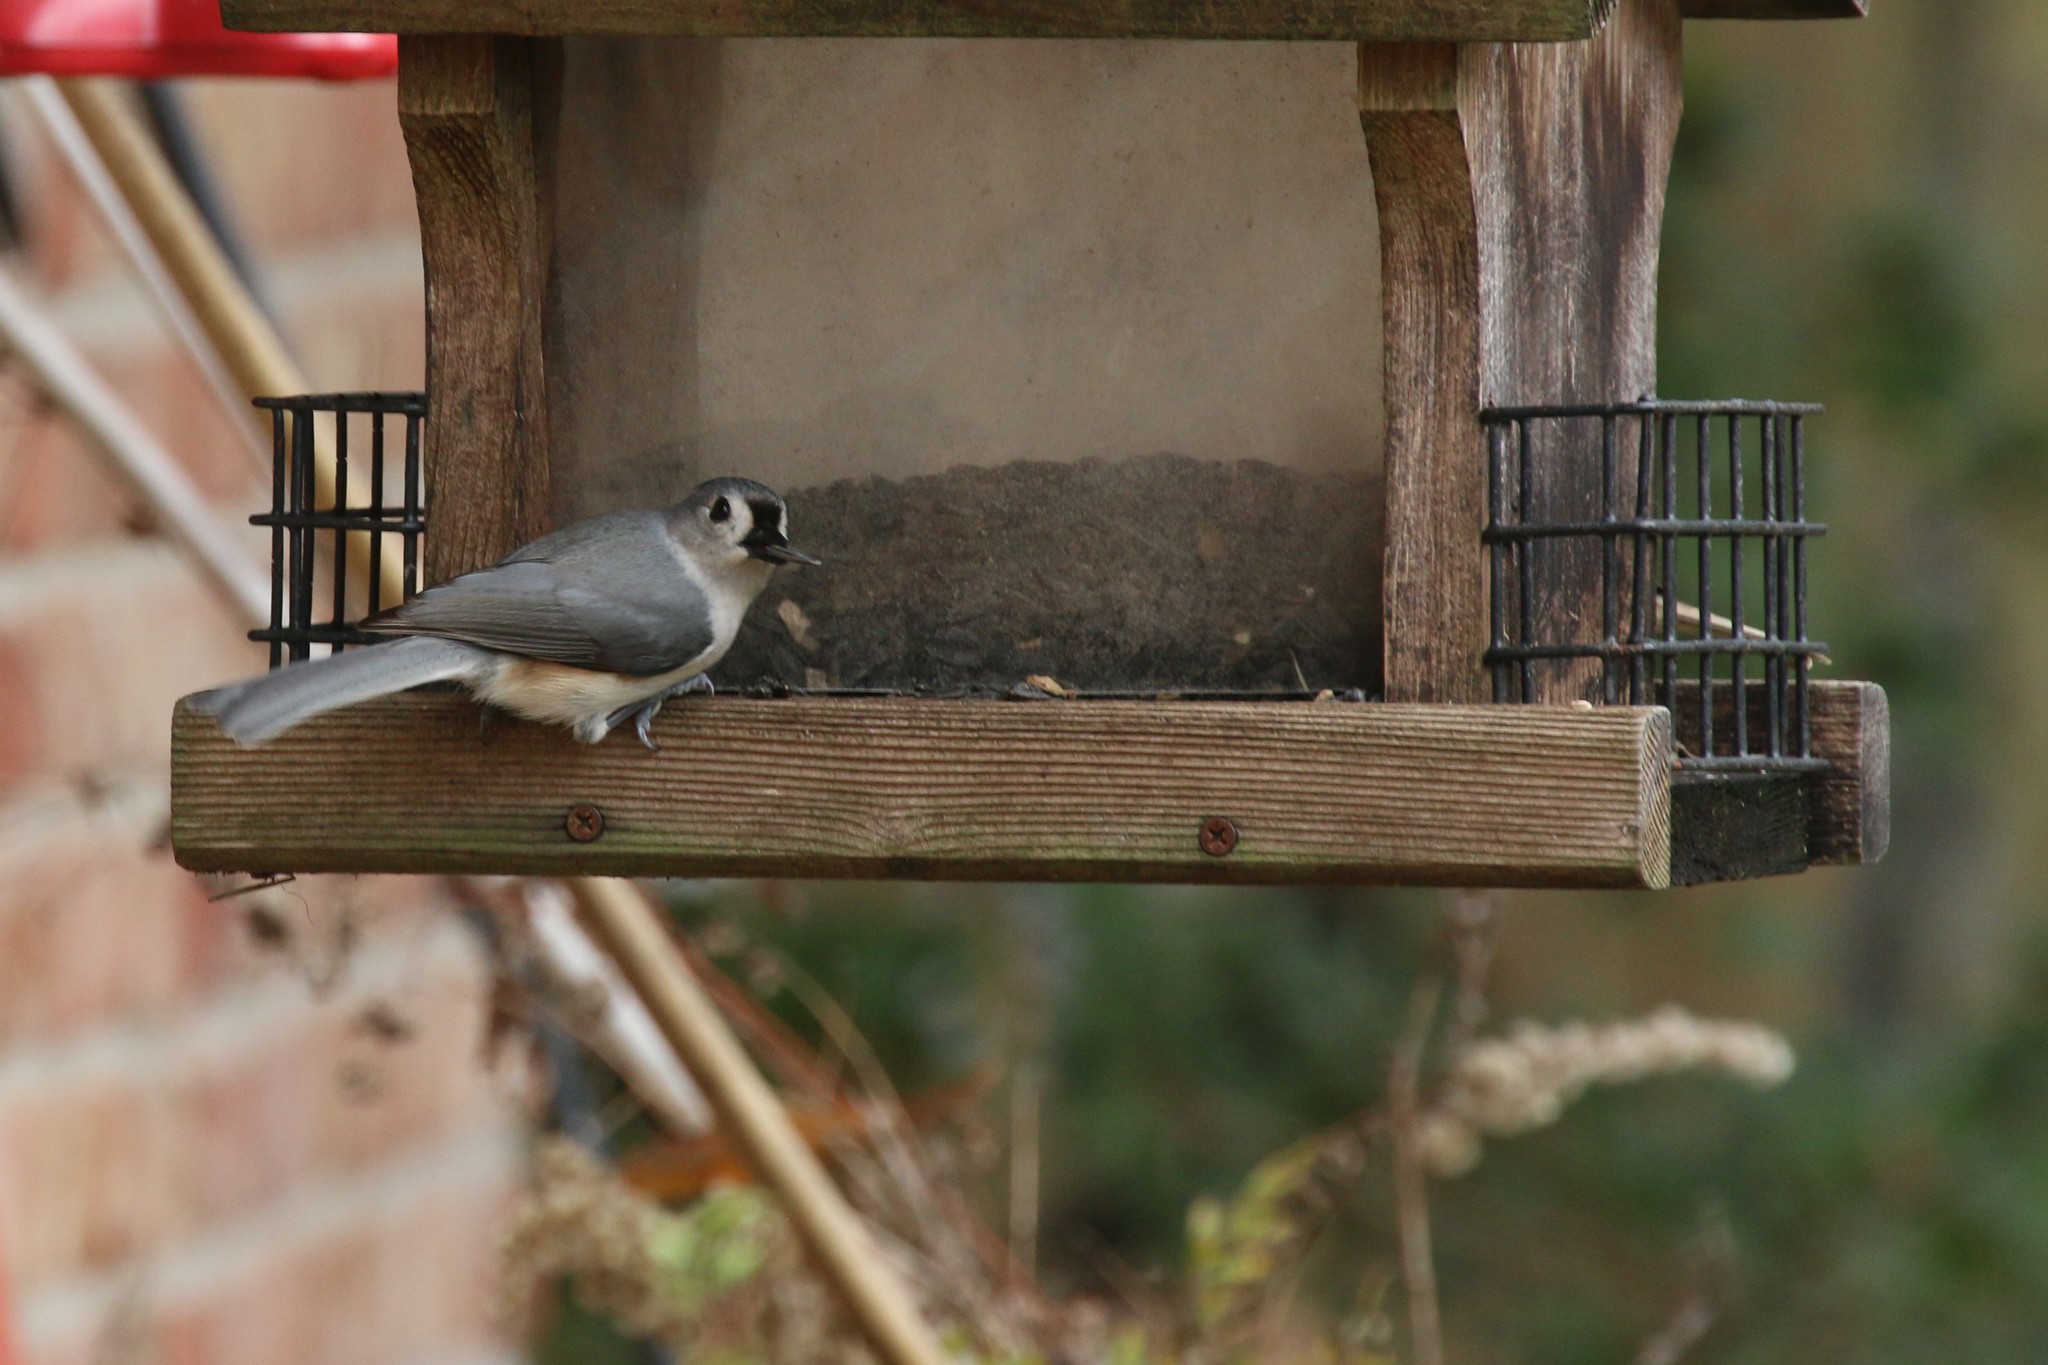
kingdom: Animalia
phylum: Chordata
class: Aves
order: Passeriformes
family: Paridae
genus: Baeolophus
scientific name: Baeolophus bicolor
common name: Tufted titmouse
